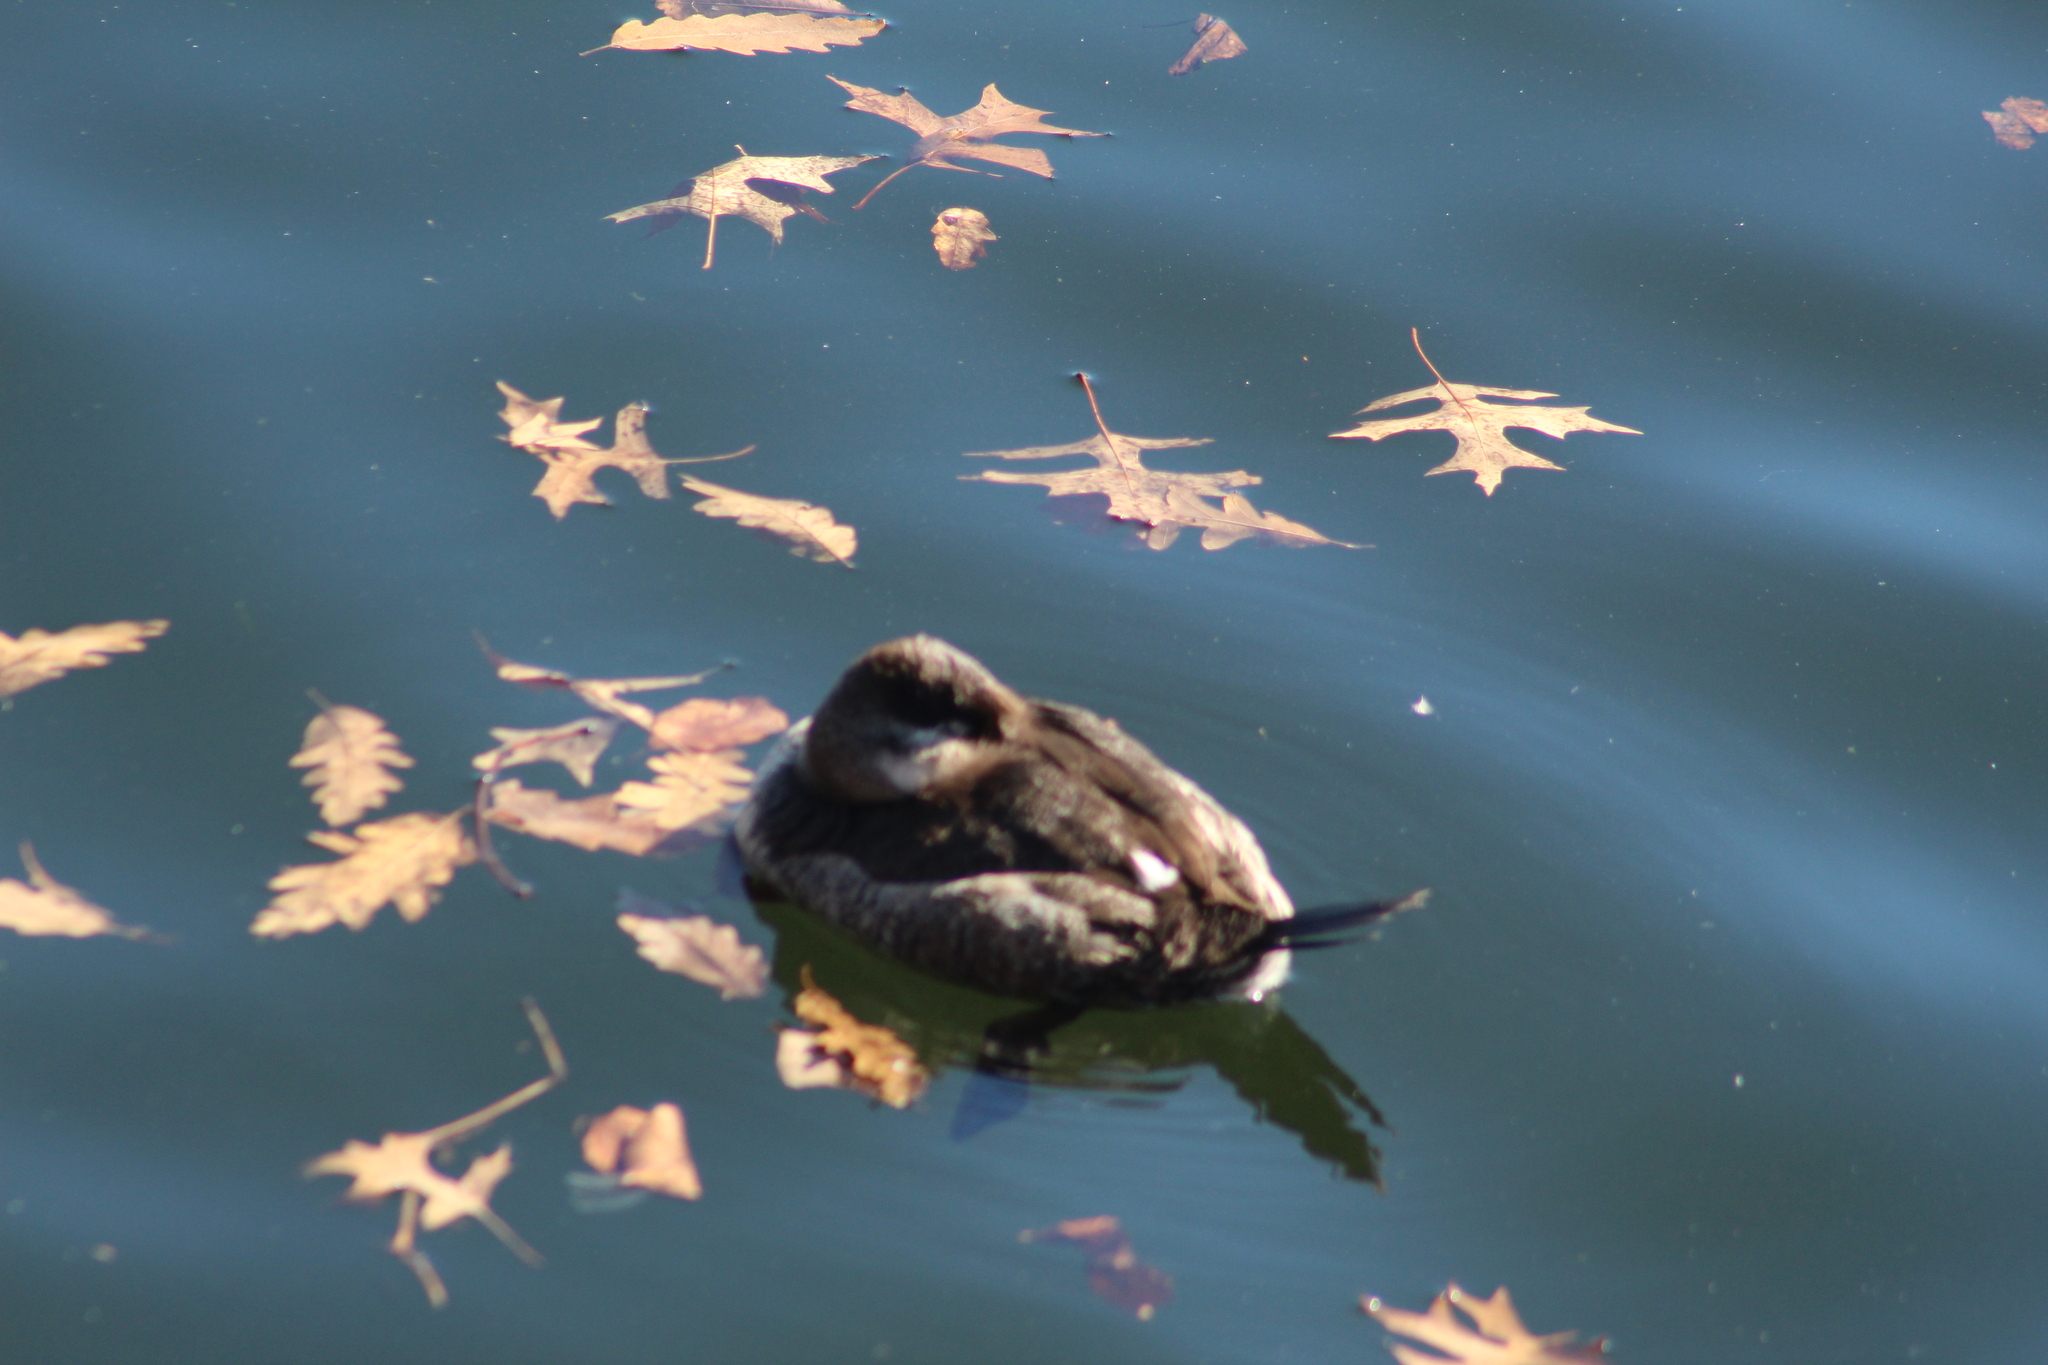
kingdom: Animalia
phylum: Chordata
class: Aves
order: Anseriformes
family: Anatidae
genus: Oxyura
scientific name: Oxyura jamaicensis
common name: Ruddy duck
